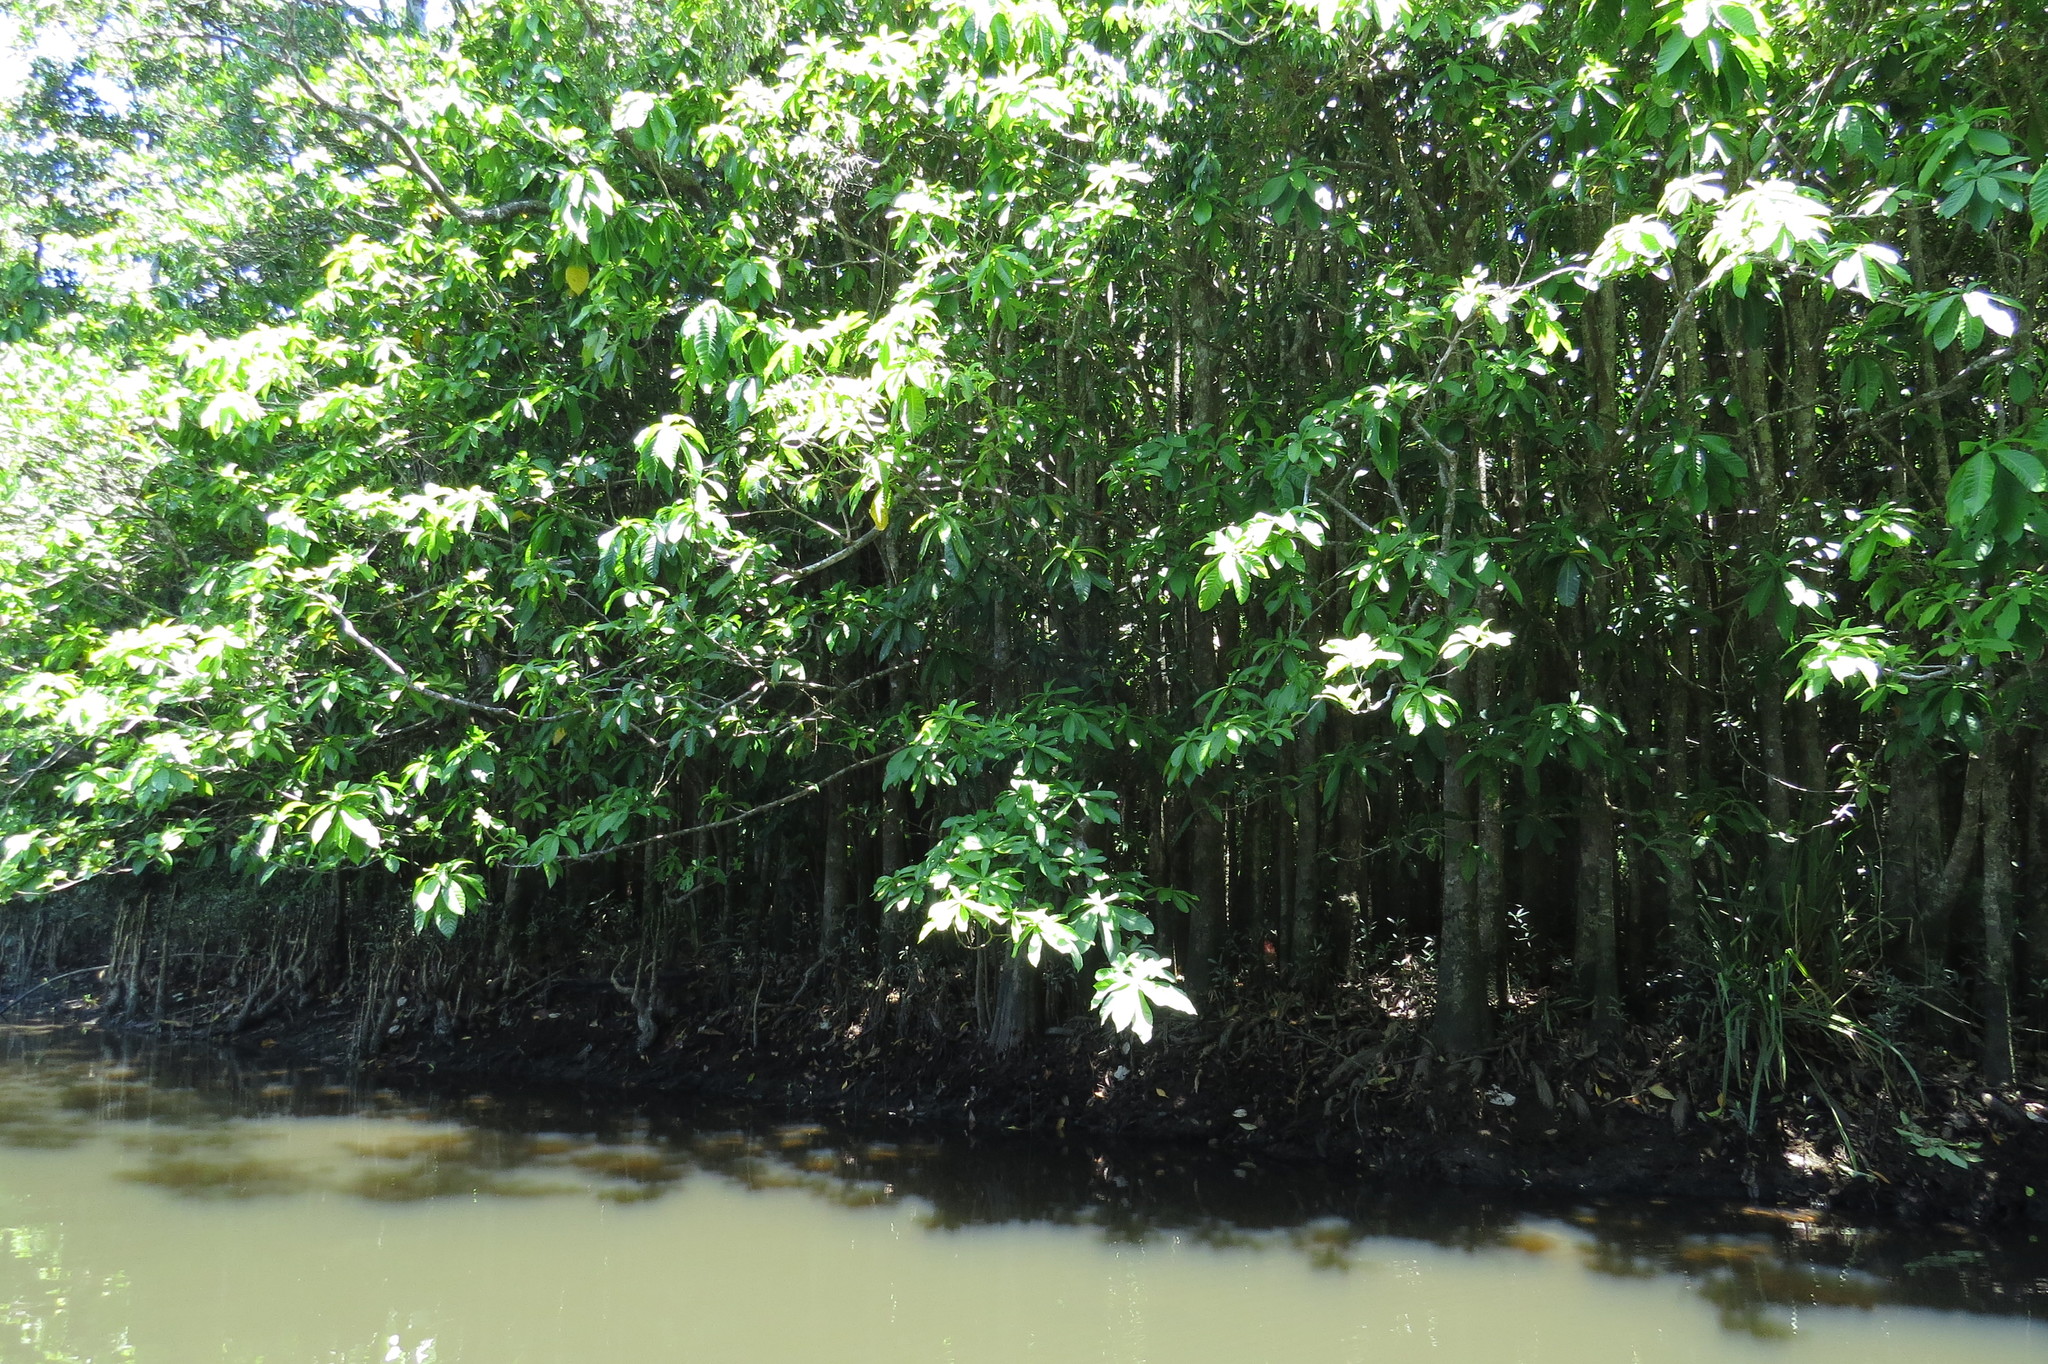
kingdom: Plantae
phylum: Tracheophyta
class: Magnoliopsida
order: Ericales
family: Lecythidaceae
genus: Barringtonia
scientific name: Barringtonia racemosa
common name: Brackwater mangrove
